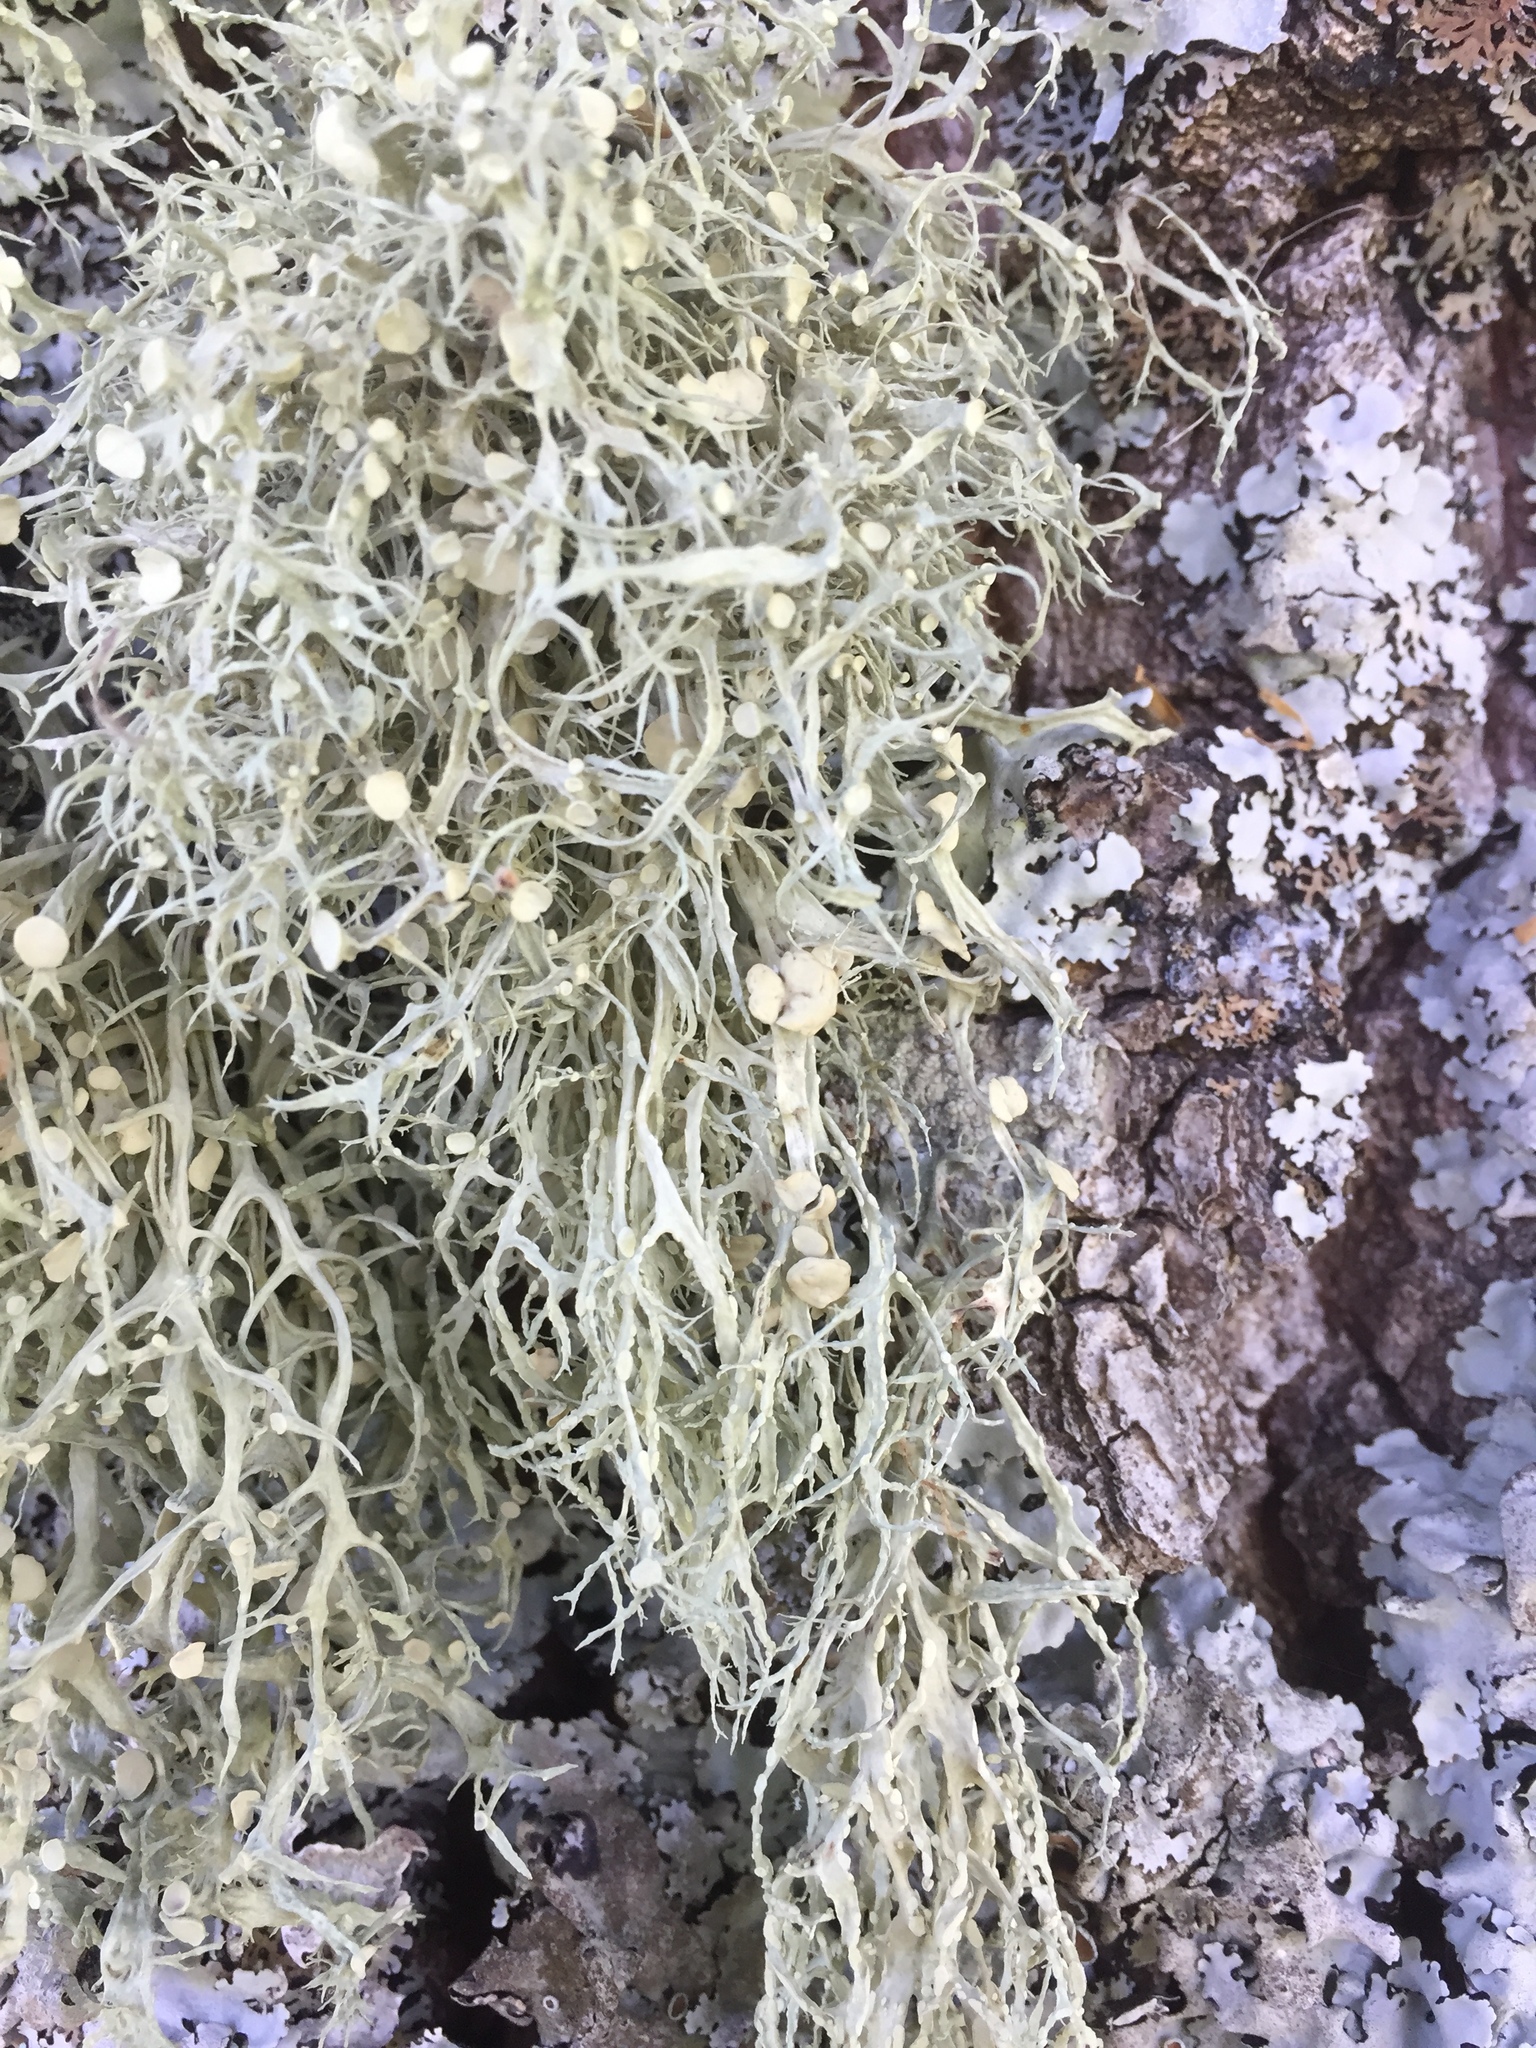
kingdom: Fungi
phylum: Ascomycota
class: Lecanoromycetes
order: Lecanorales
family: Ramalinaceae
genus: Ramalina
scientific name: Ramalina calicaris
